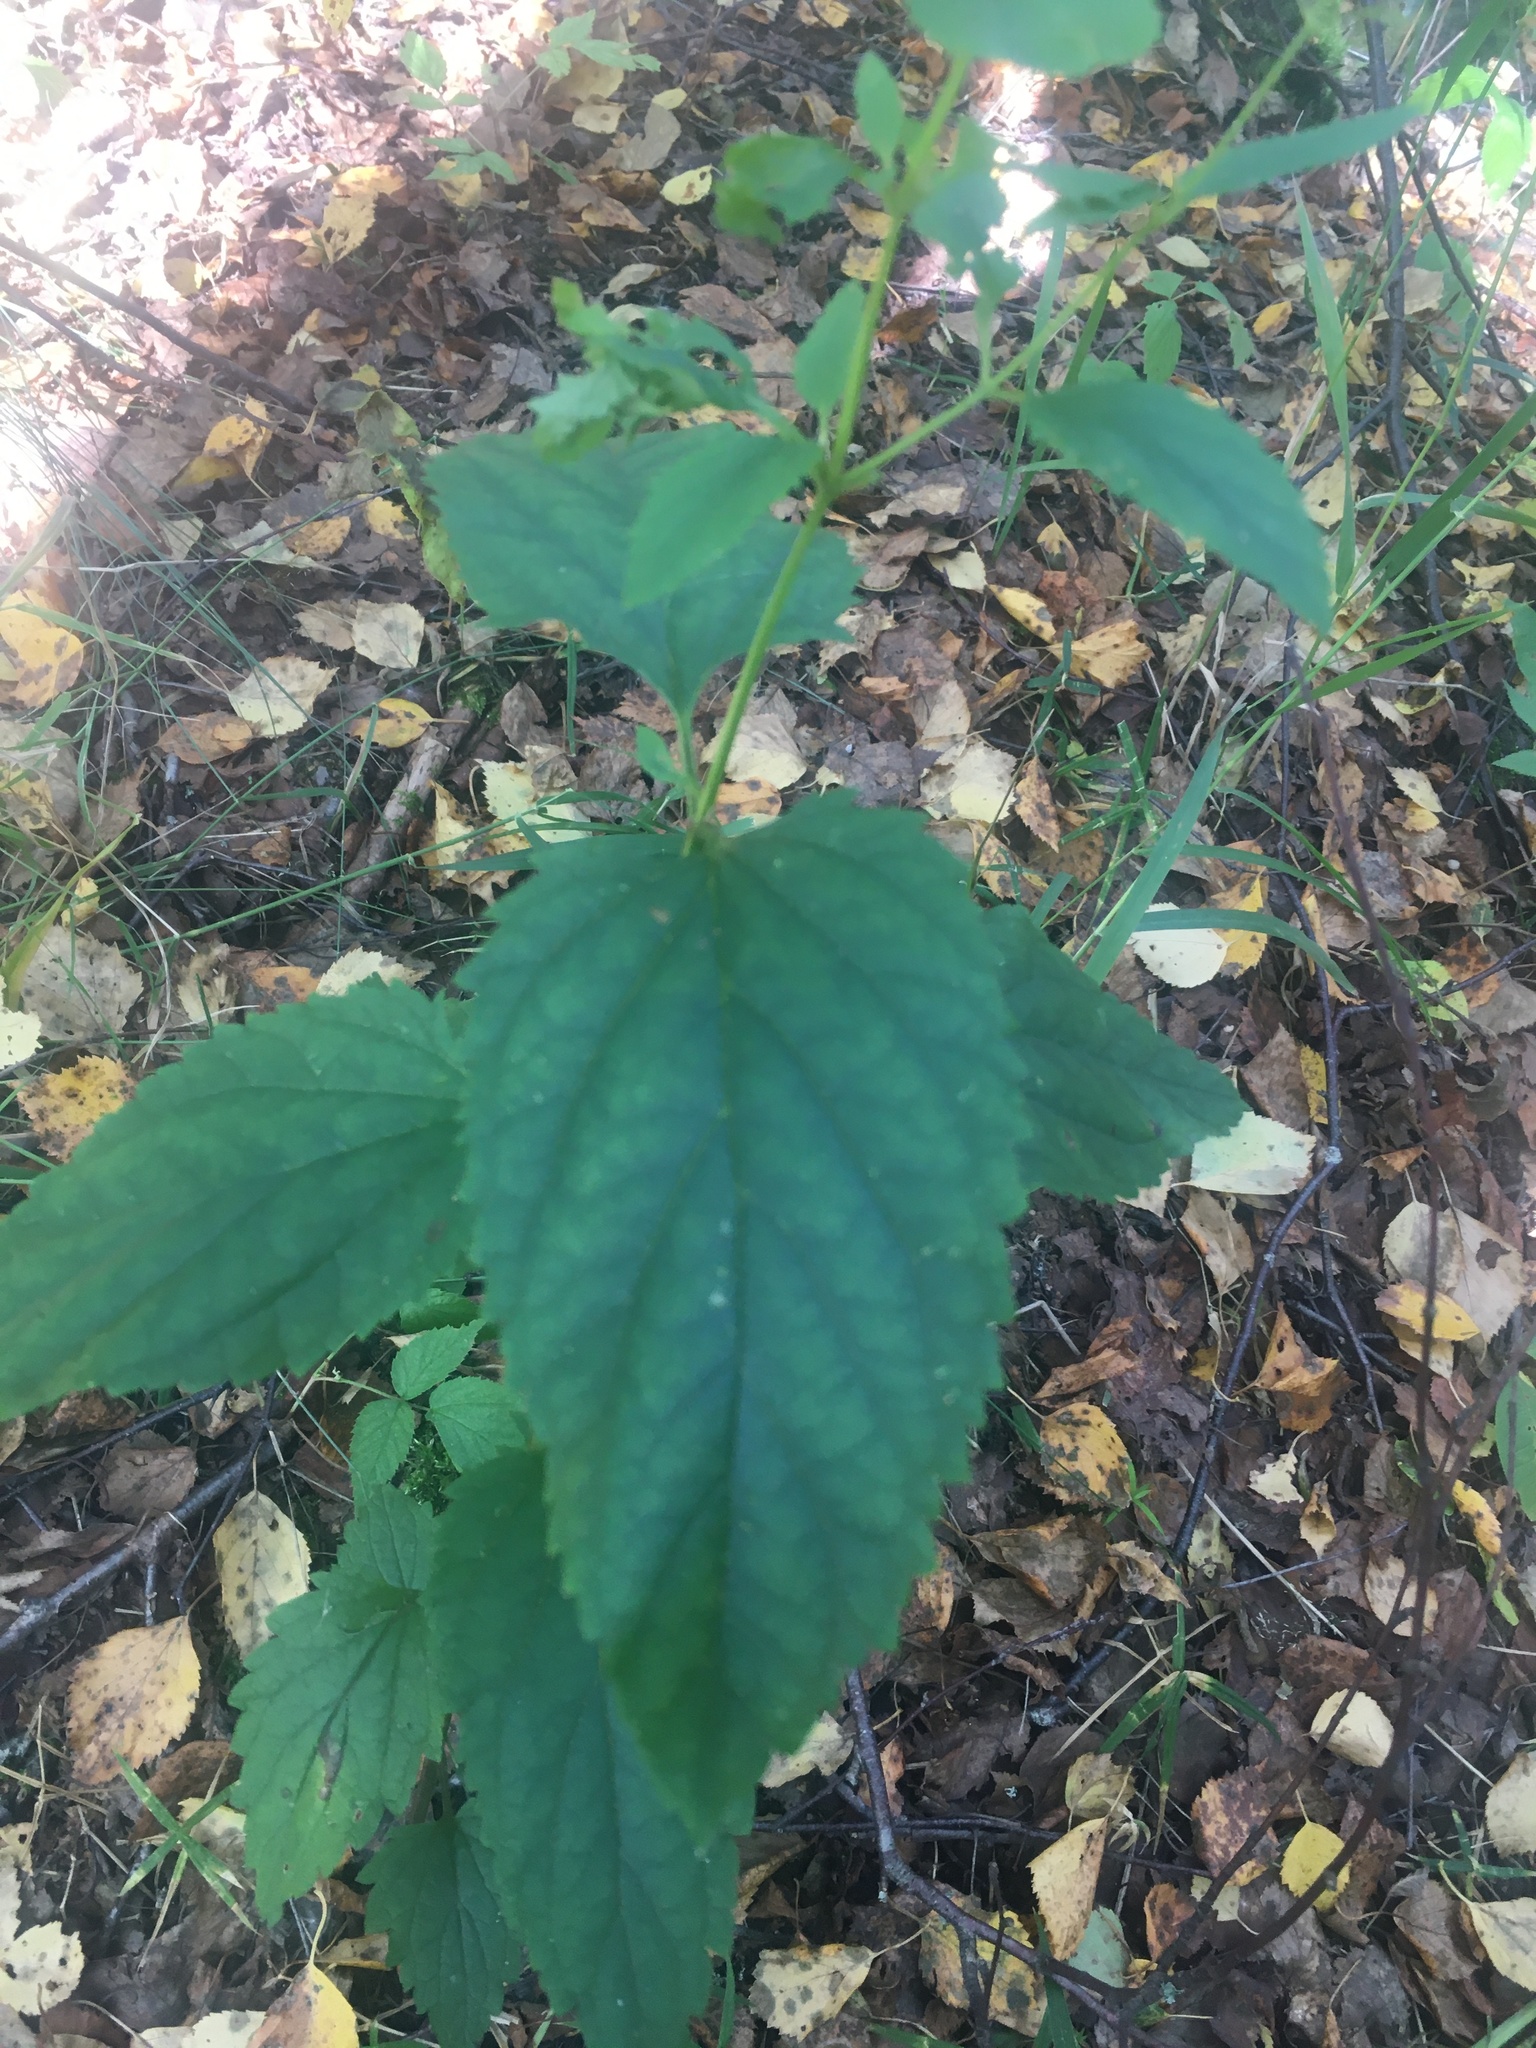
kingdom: Plantae
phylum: Tracheophyta
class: Magnoliopsida
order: Lamiales
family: Scrophulariaceae
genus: Scrophularia
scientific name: Scrophularia nodosa
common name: Common figwort
